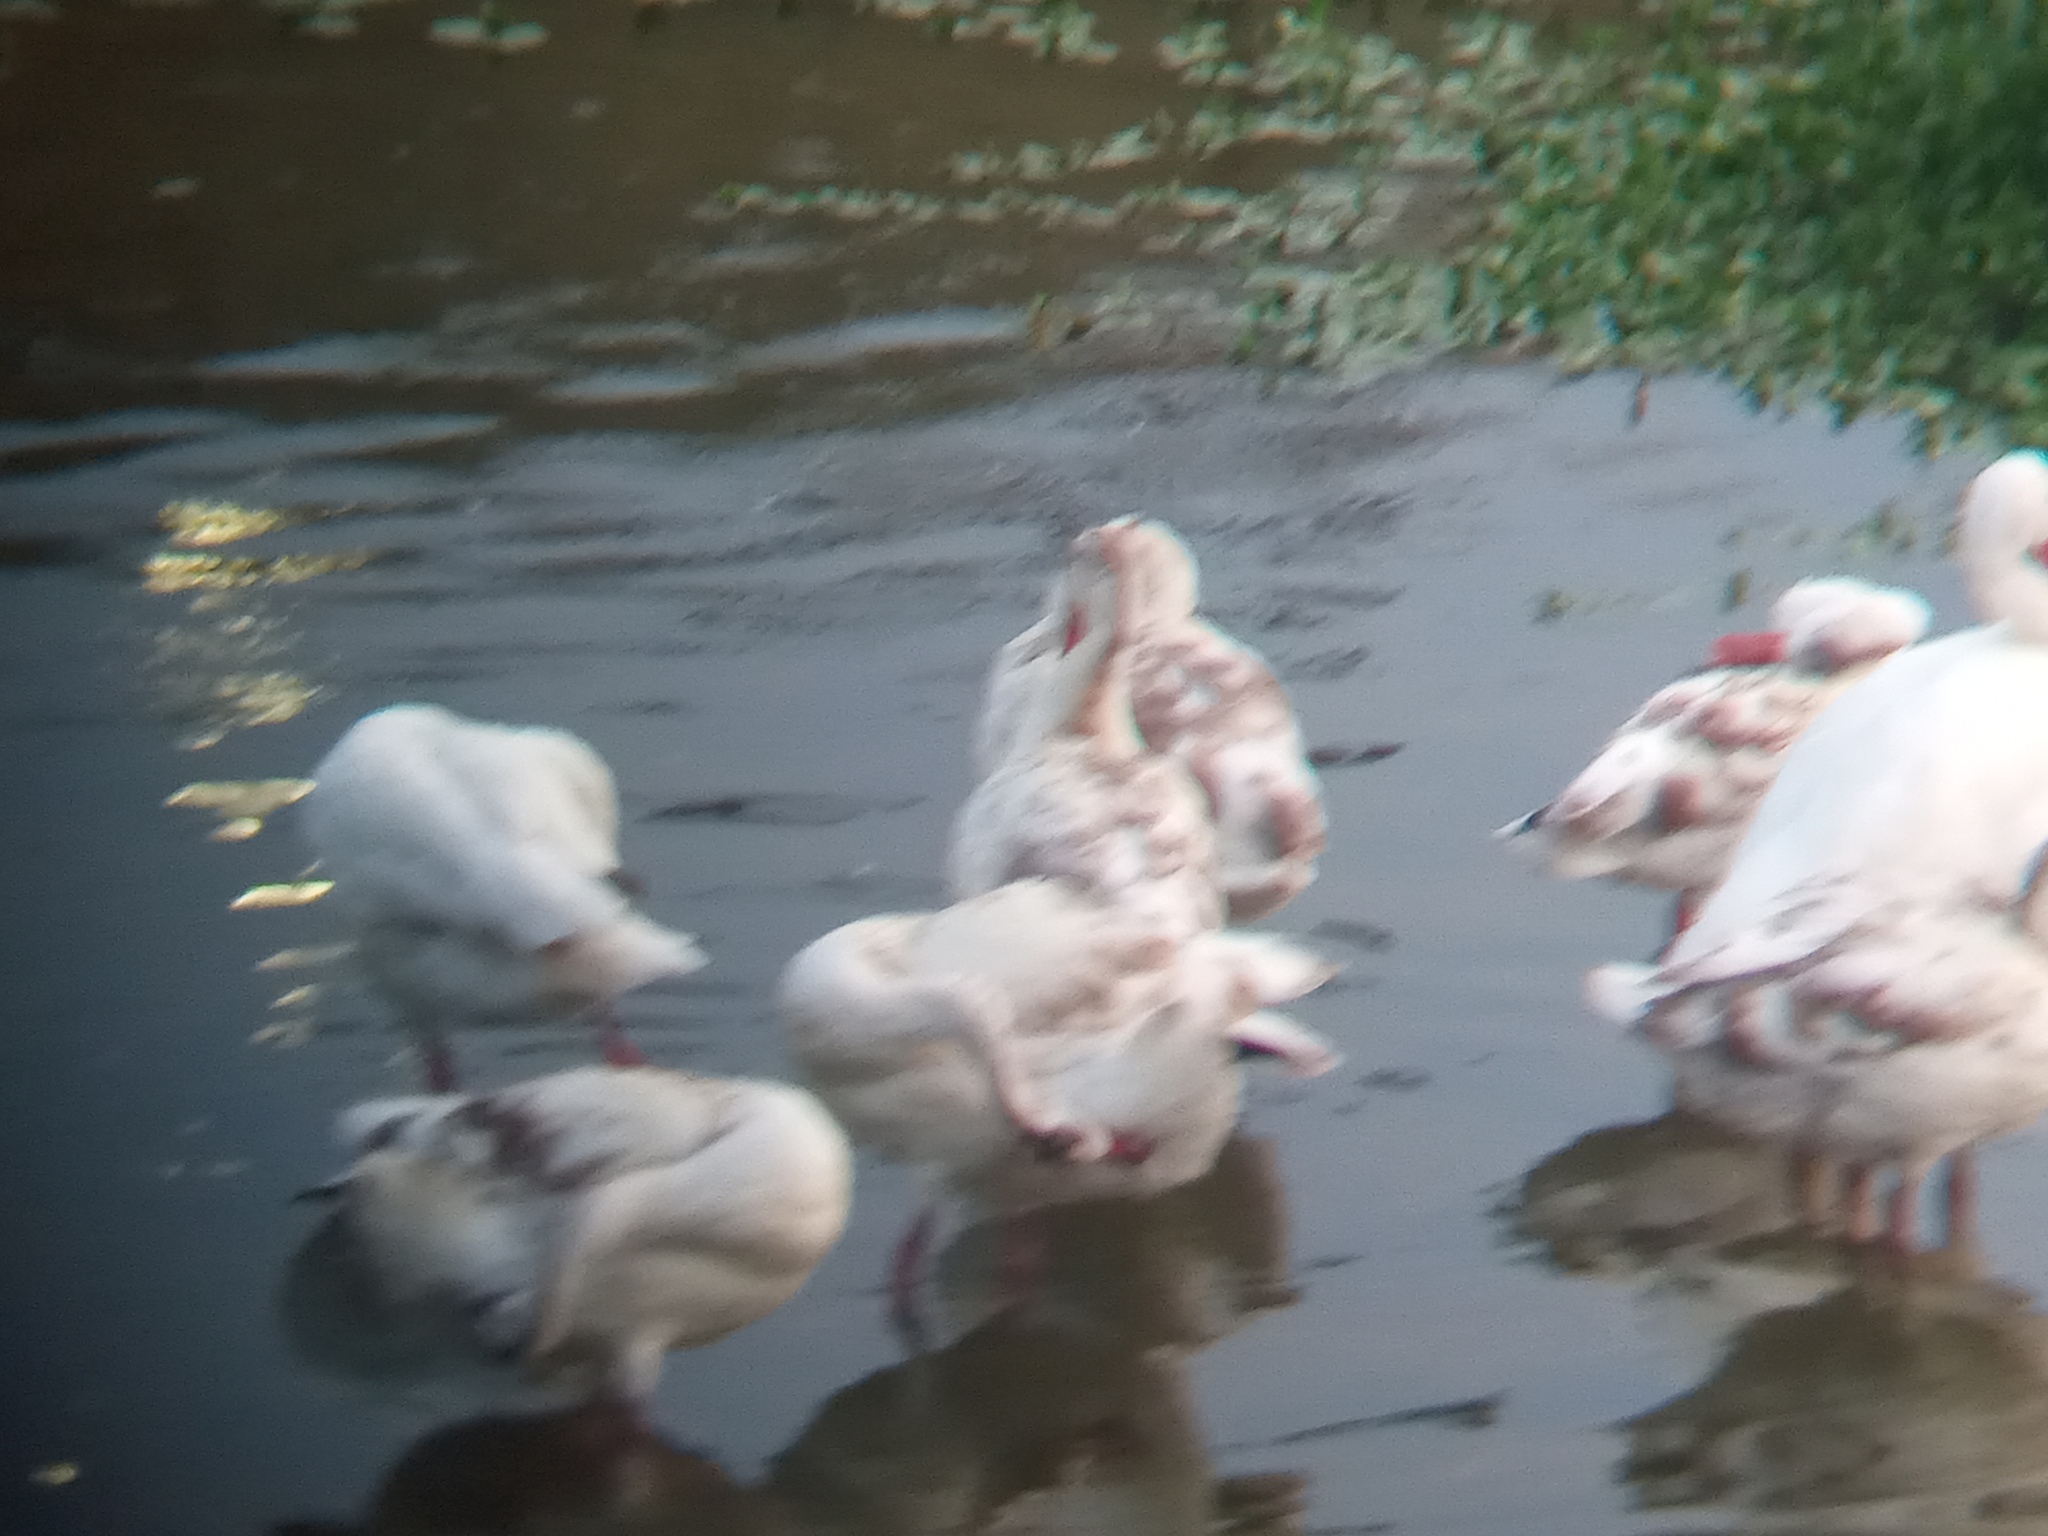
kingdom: Animalia
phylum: Chordata
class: Aves
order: Anseriformes
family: Anatidae
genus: Coscoroba
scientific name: Coscoroba coscoroba
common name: Coscoroba swan
